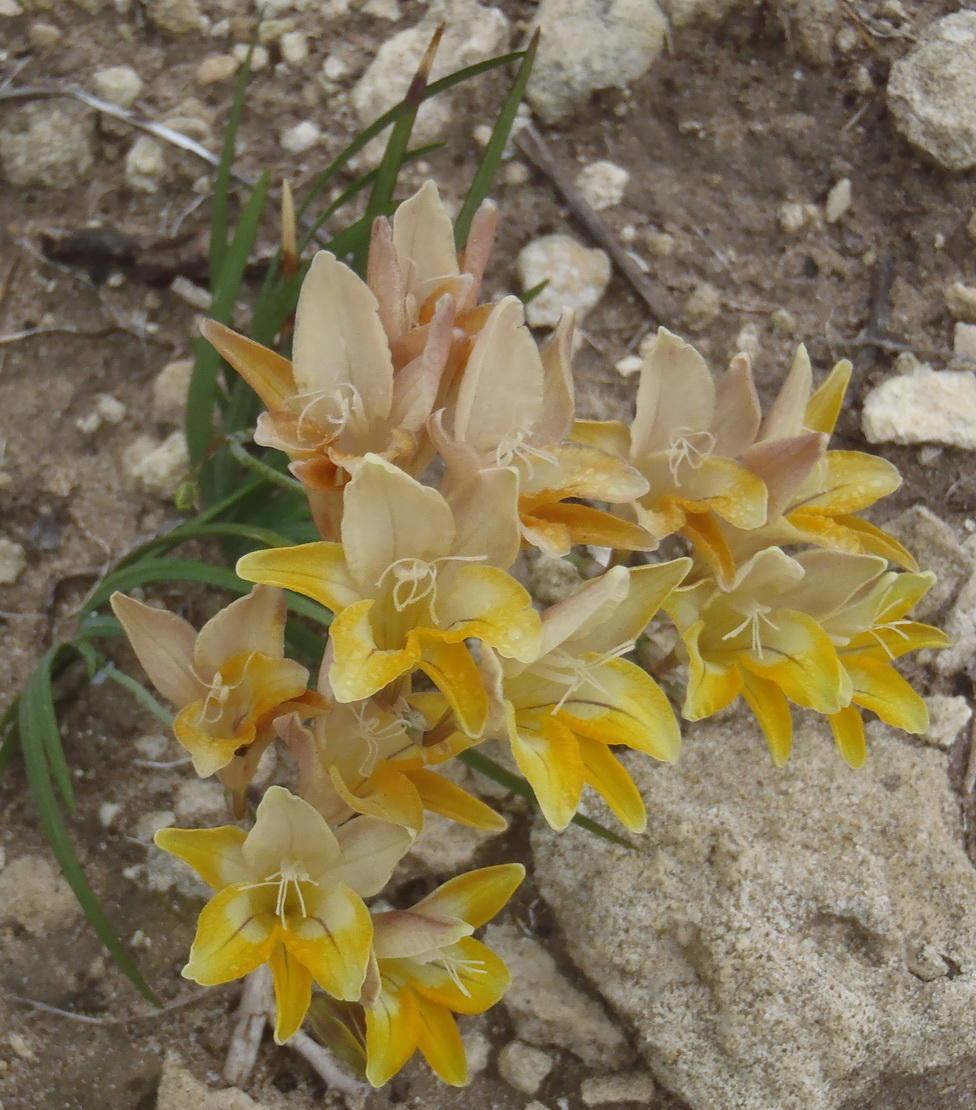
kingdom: Plantae
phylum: Tracheophyta
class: Liliopsida
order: Asparagales
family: Iridaceae
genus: Freesia
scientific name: Freesia leichtlinii
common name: Freesia
